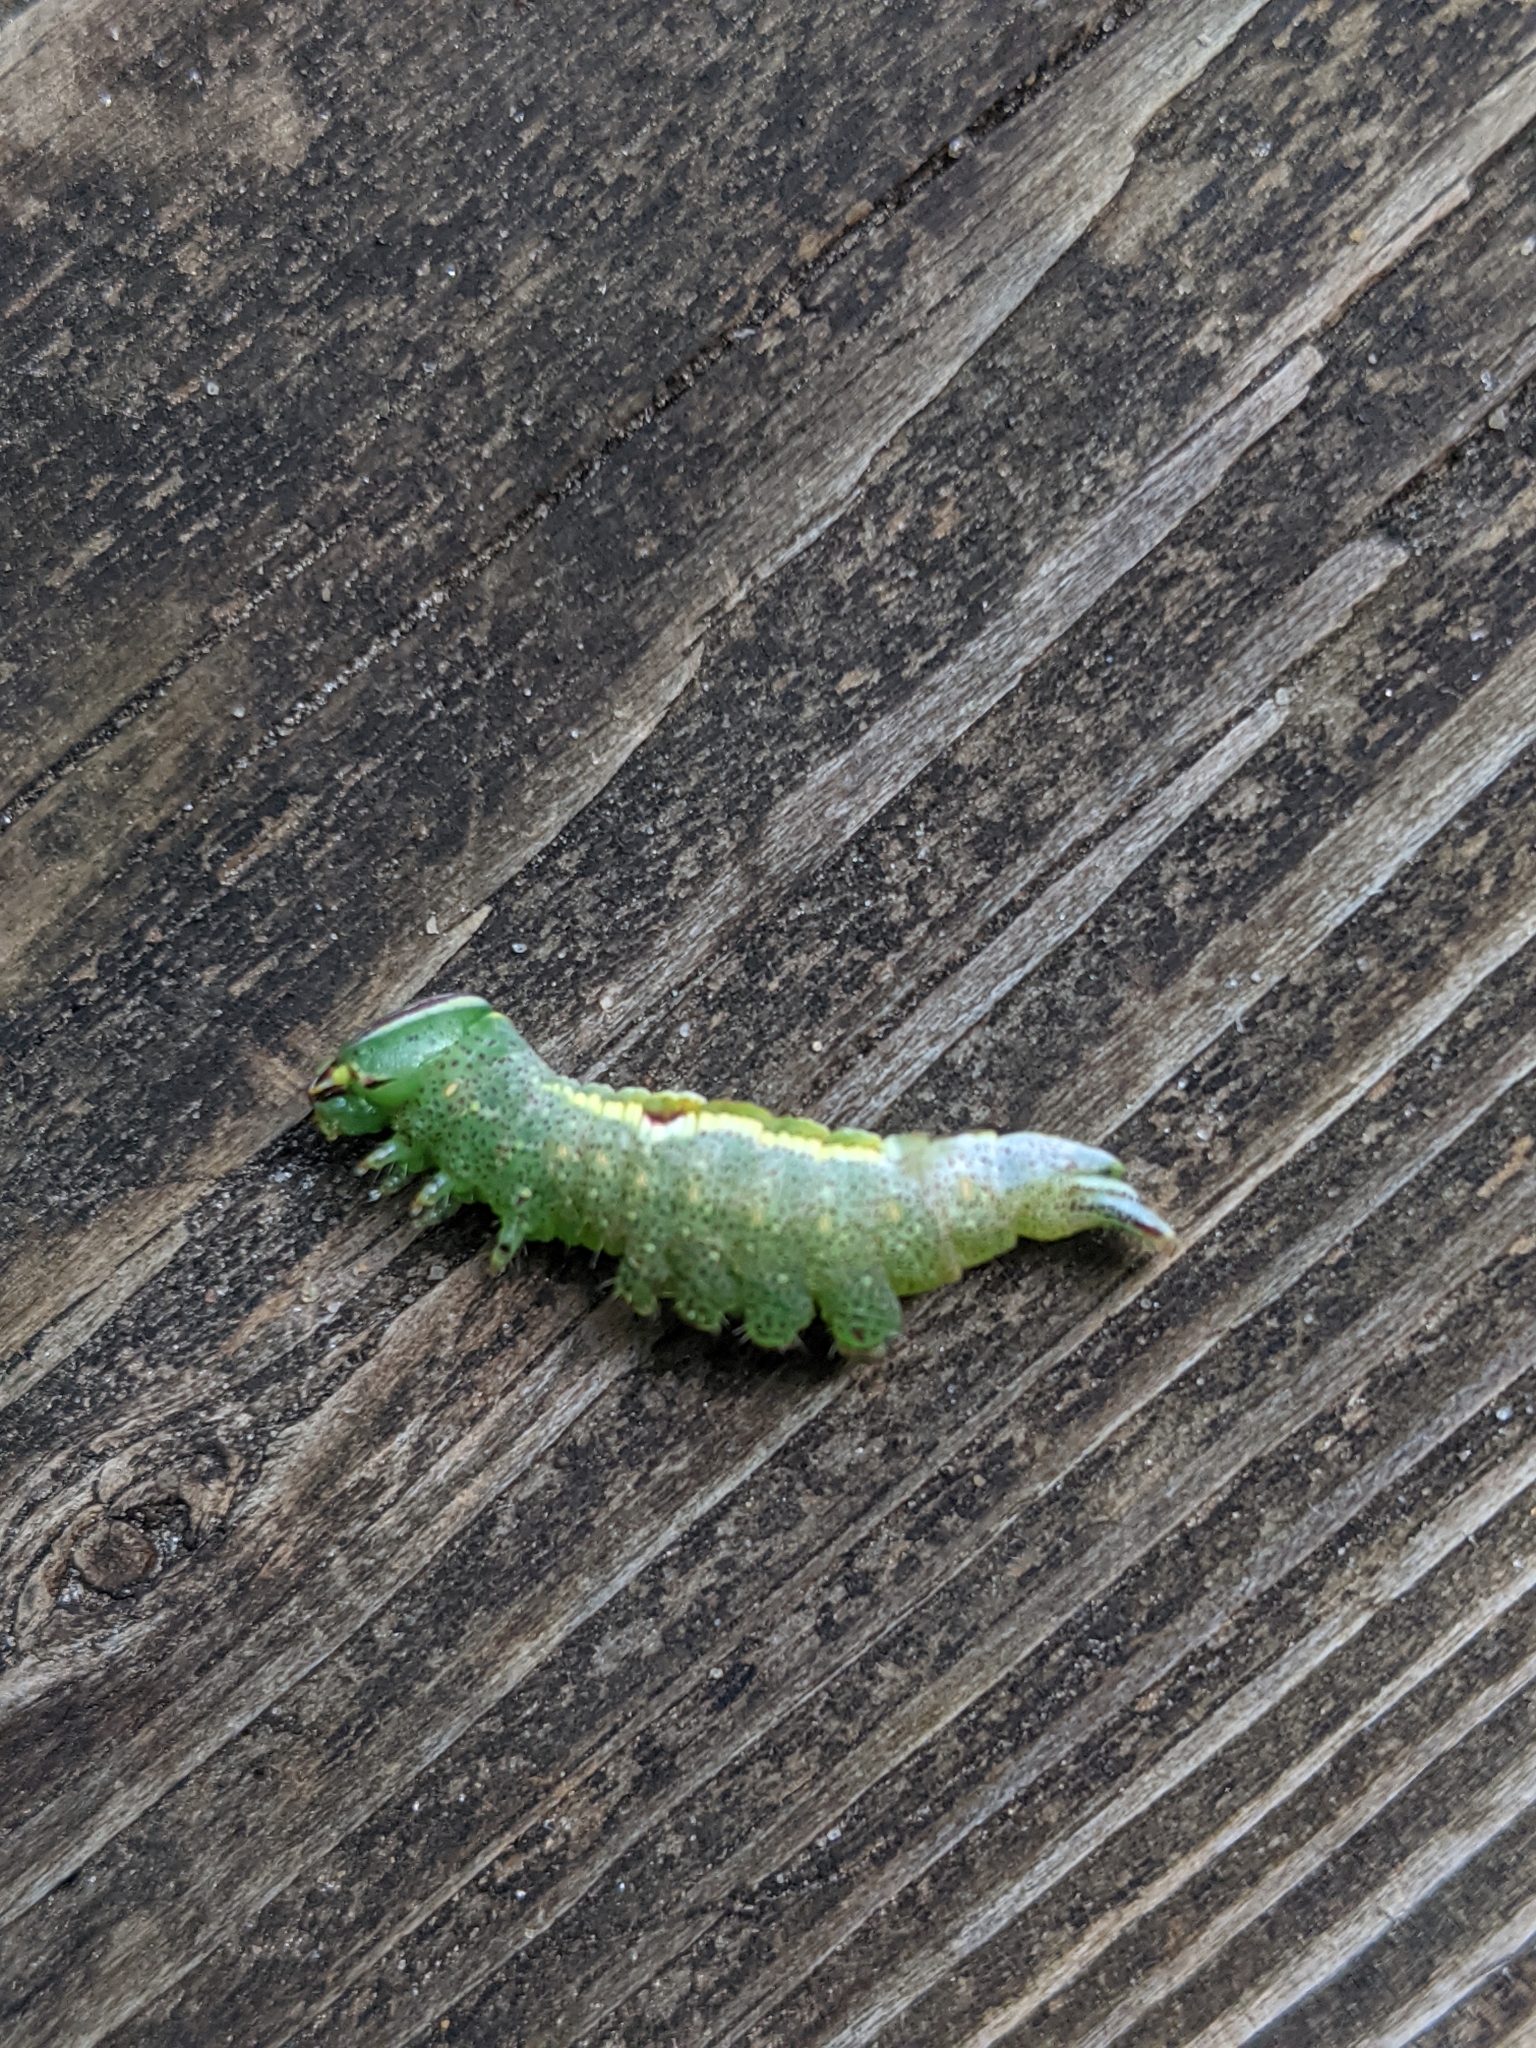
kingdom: Animalia
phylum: Arthropoda
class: Insecta
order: Lepidoptera
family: Notodontidae
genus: Disphragis
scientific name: Disphragis Cecrita guttivitta
